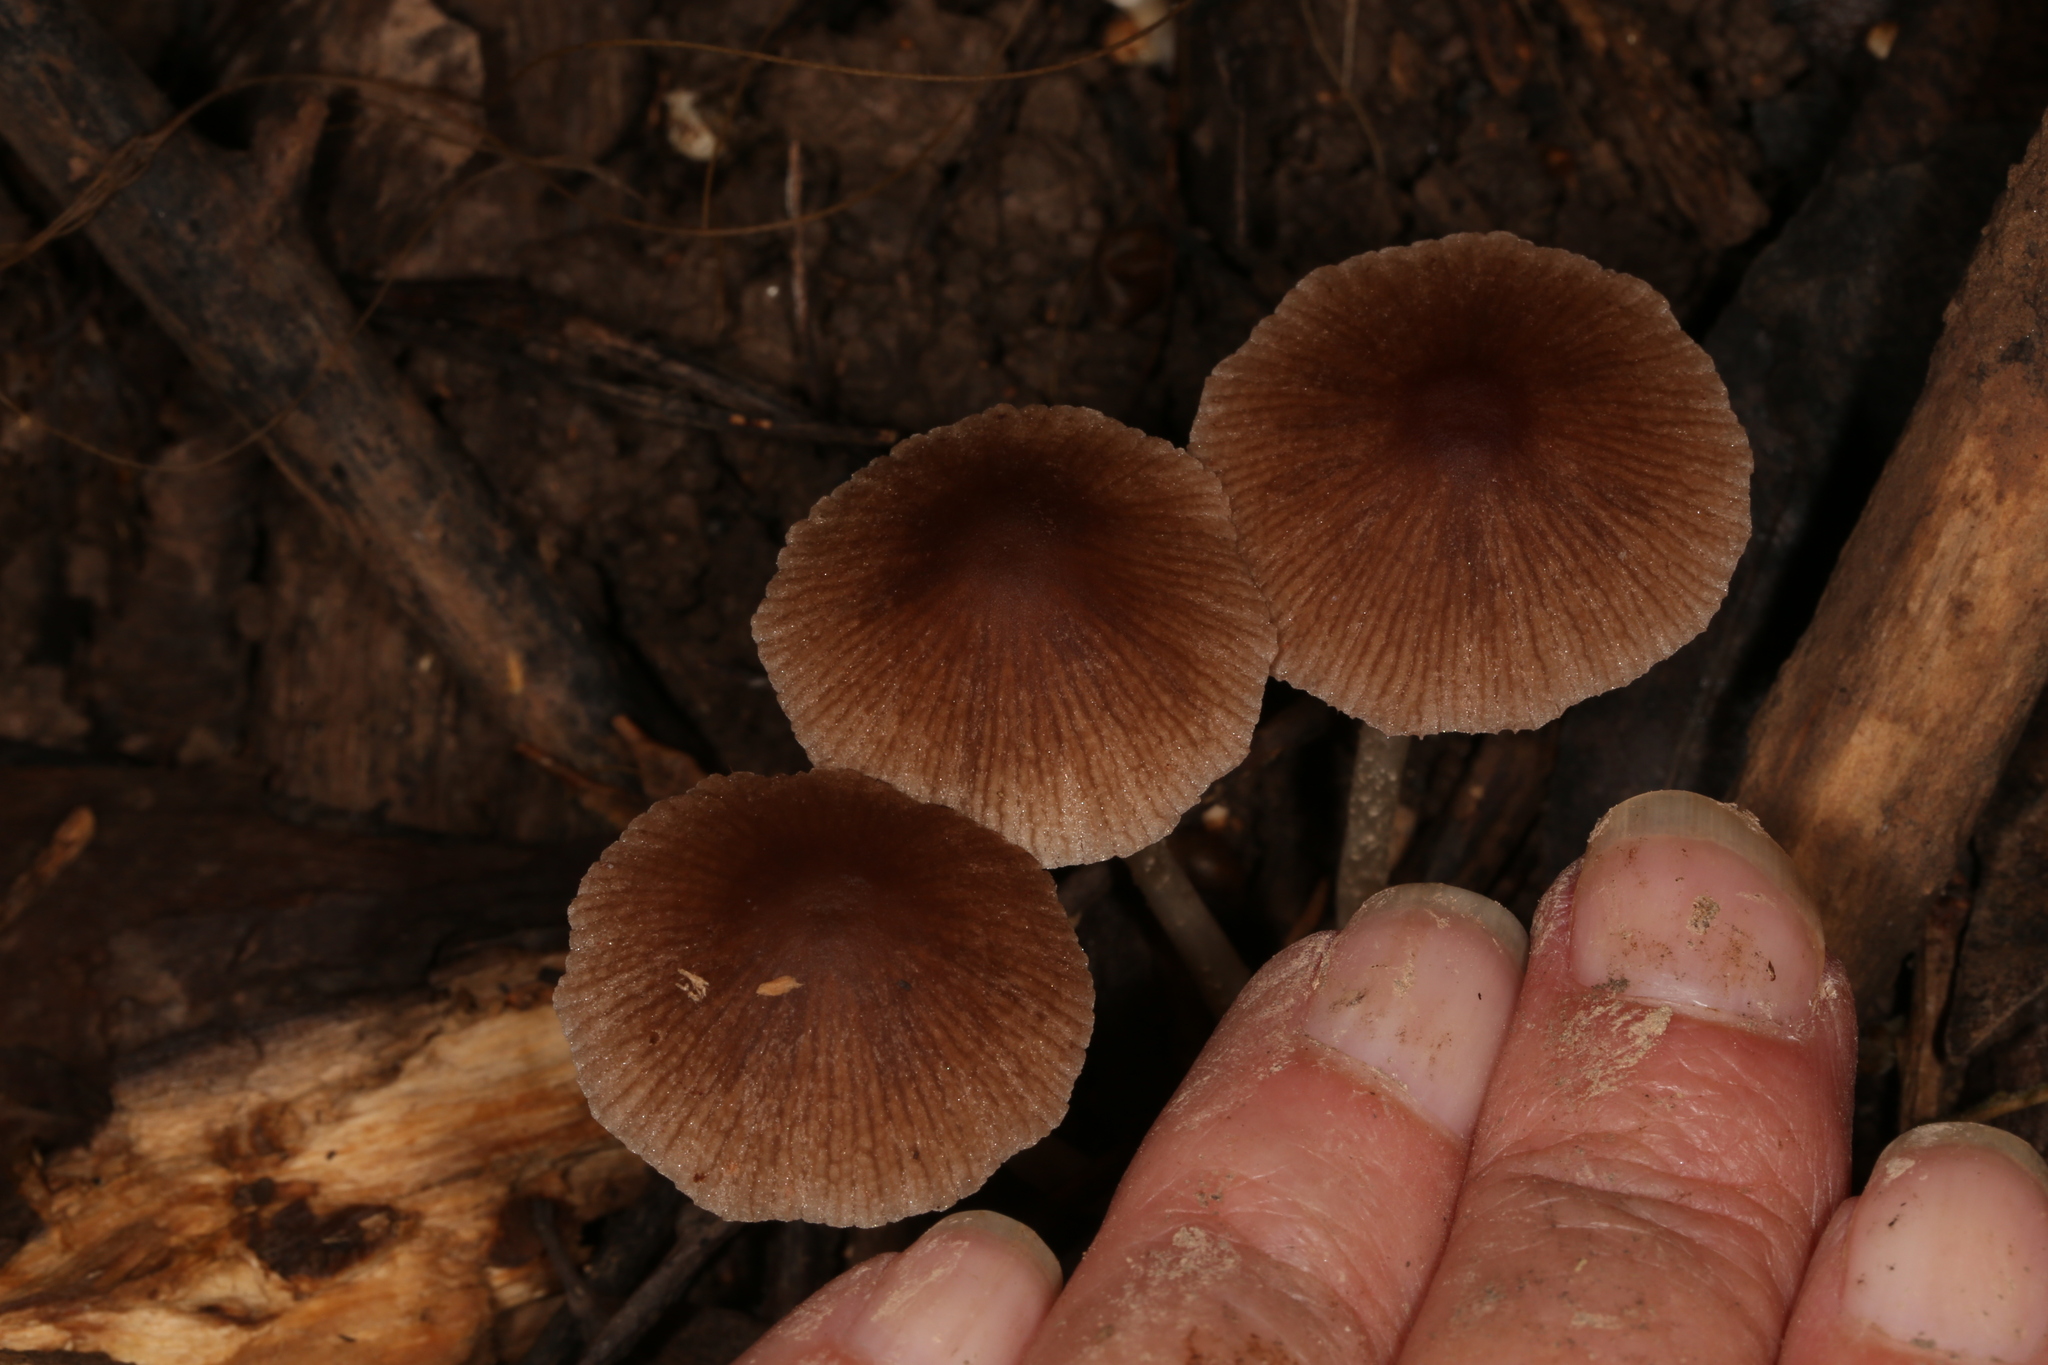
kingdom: Fungi
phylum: Basidiomycota
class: Agaricomycetes
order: Agaricales
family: Psathyrellaceae
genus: Candolleomyces
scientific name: Candolleomyces cacao
